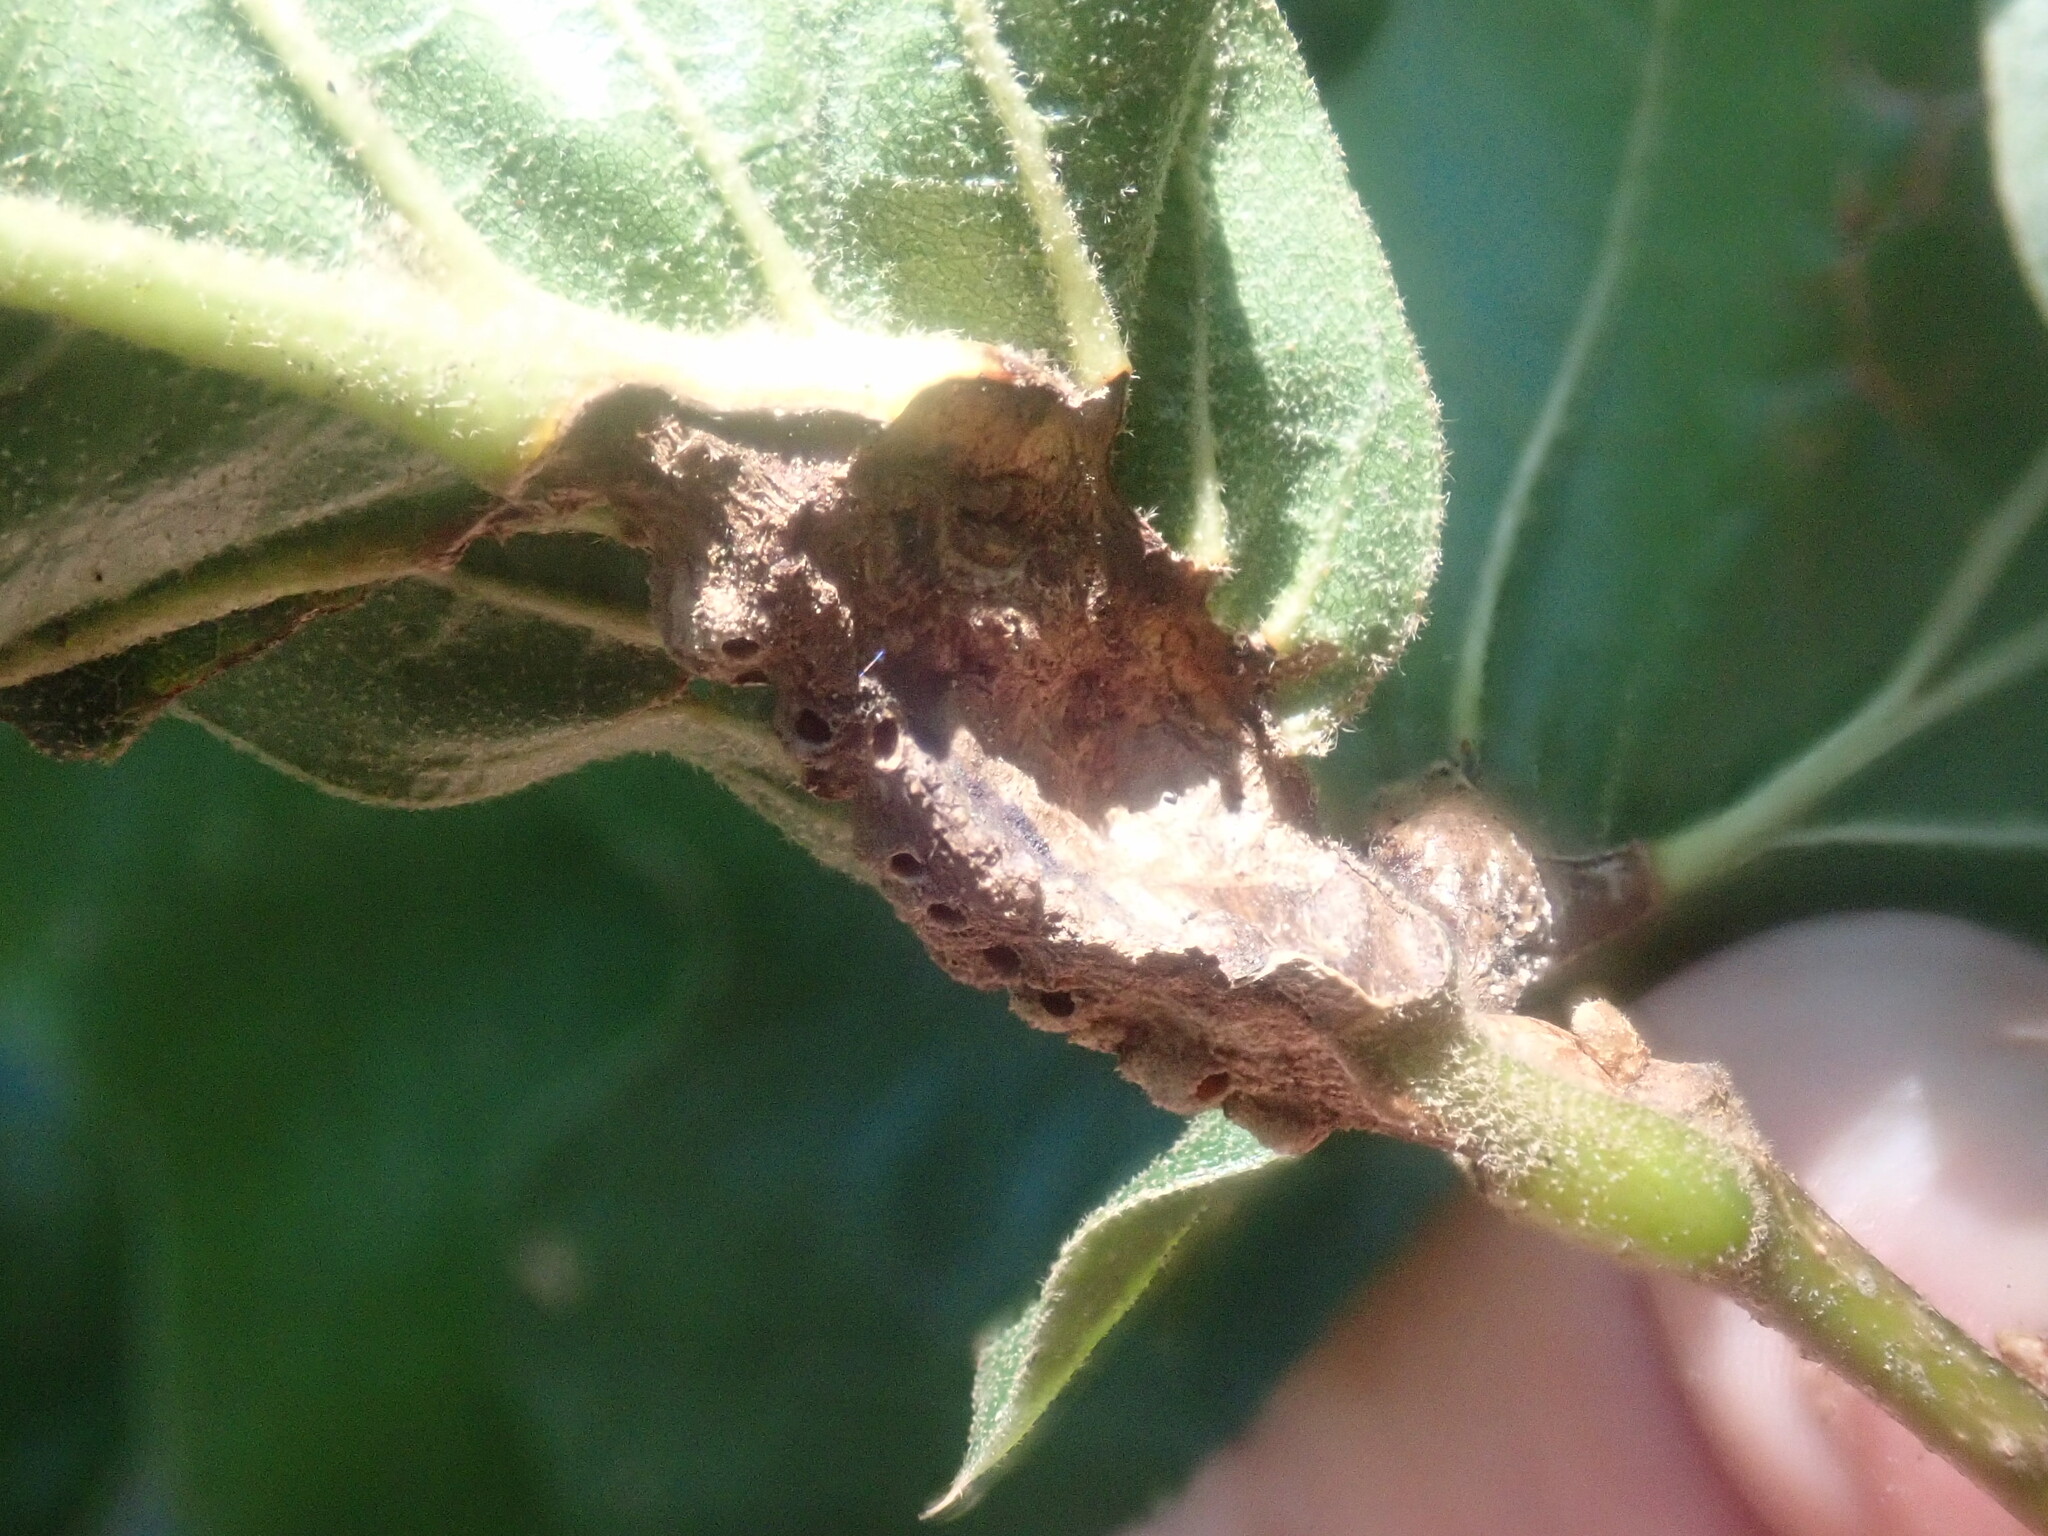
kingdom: Animalia
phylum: Arthropoda
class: Insecta
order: Hymenoptera
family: Cynipidae
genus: Melikaiella
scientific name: Melikaiella tumifica
